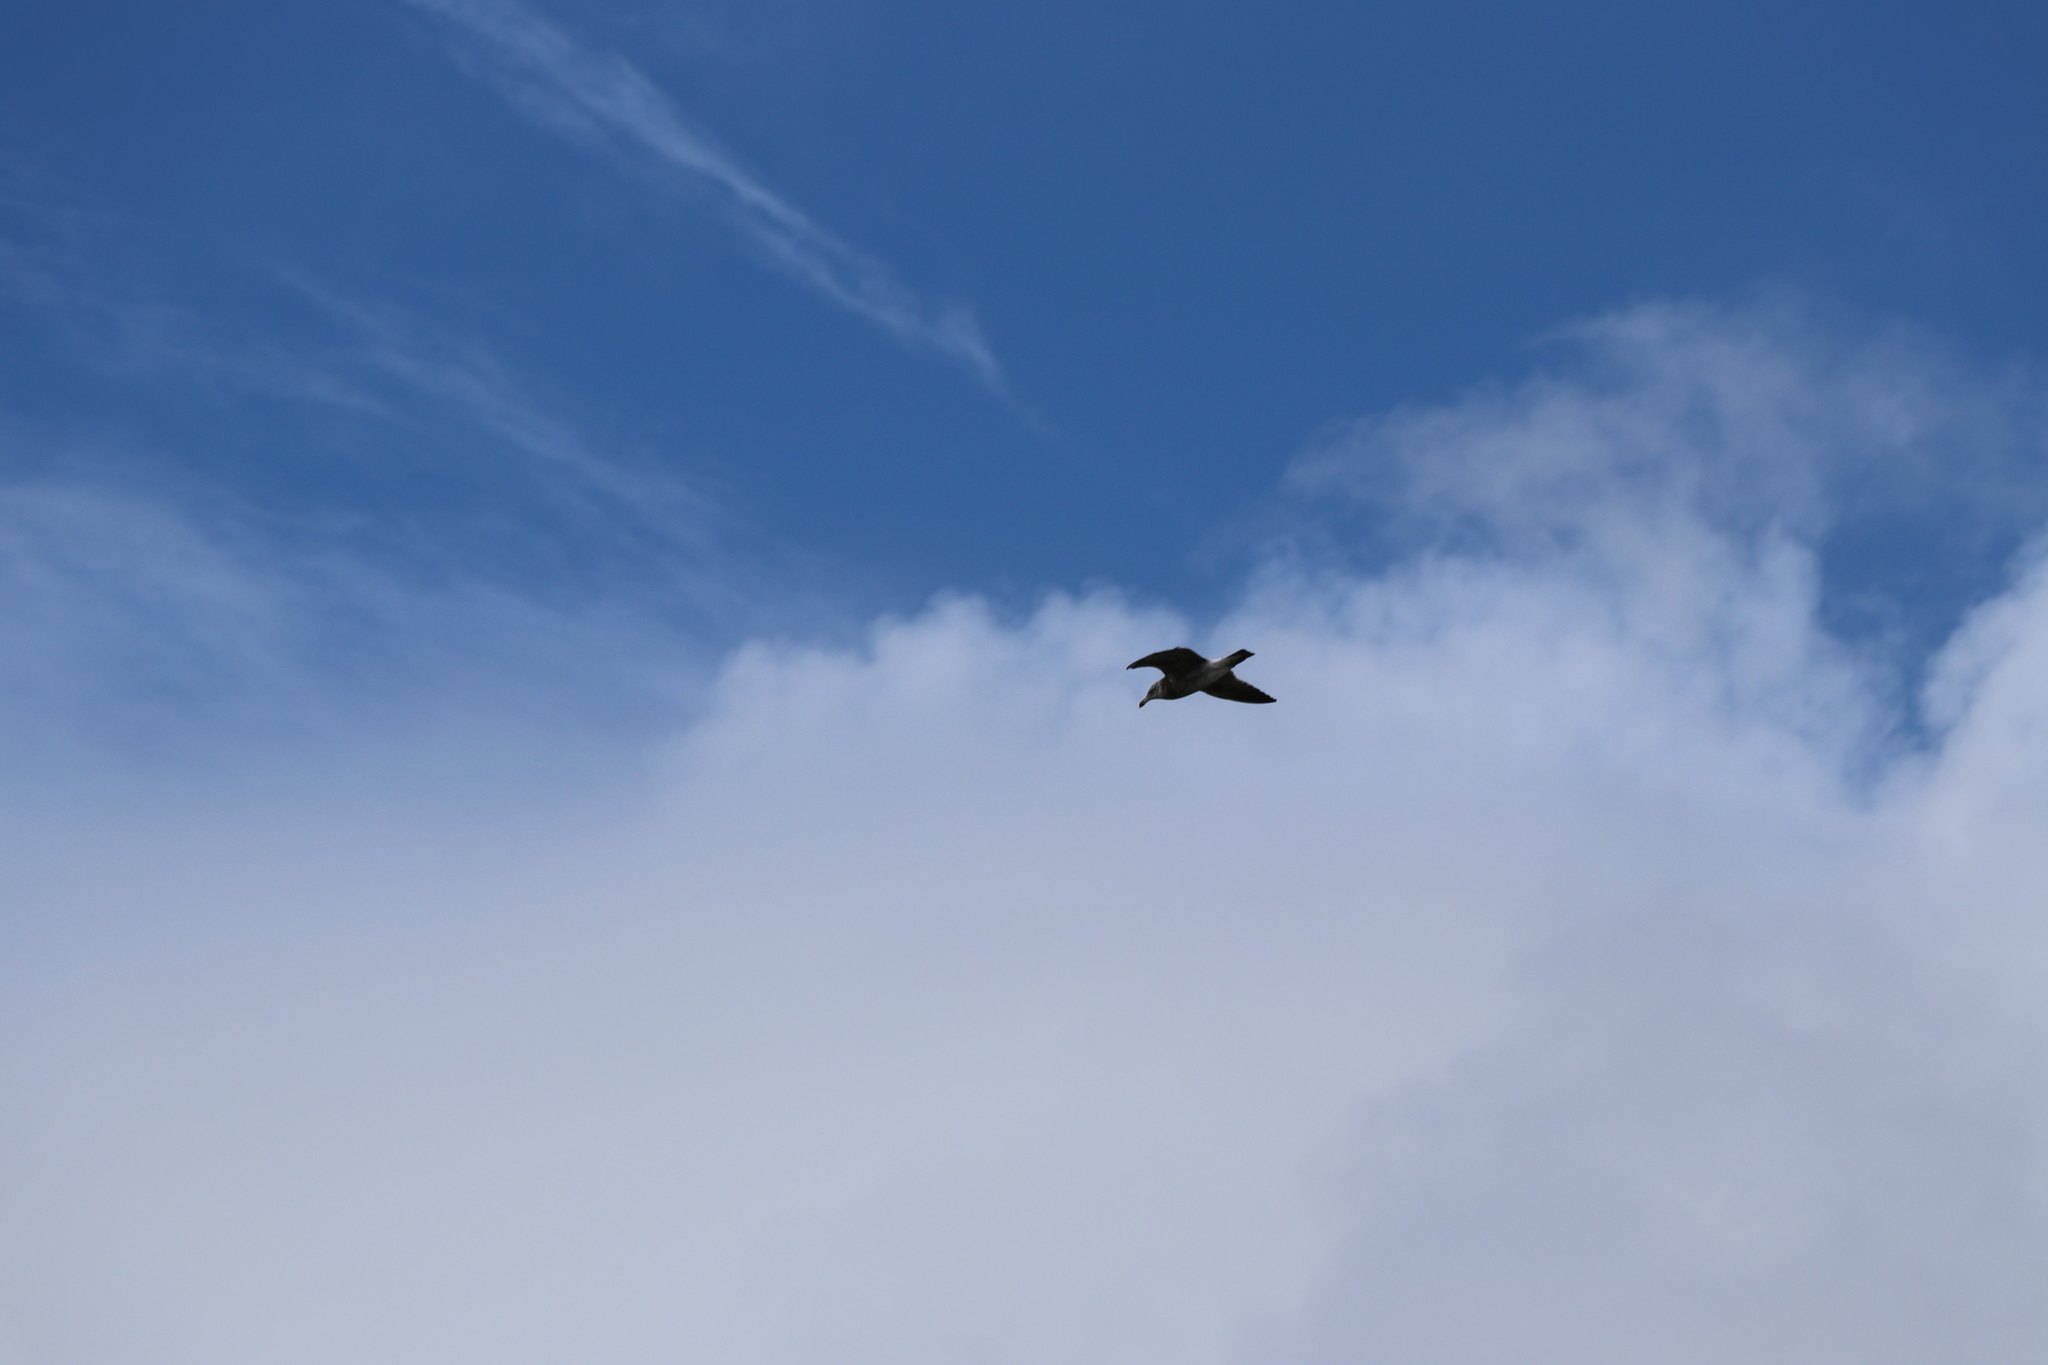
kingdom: Animalia
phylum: Chordata
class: Aves
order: Charadriiformes
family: Laridae
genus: Larus
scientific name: Larus dominicanus
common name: Kelp gull
